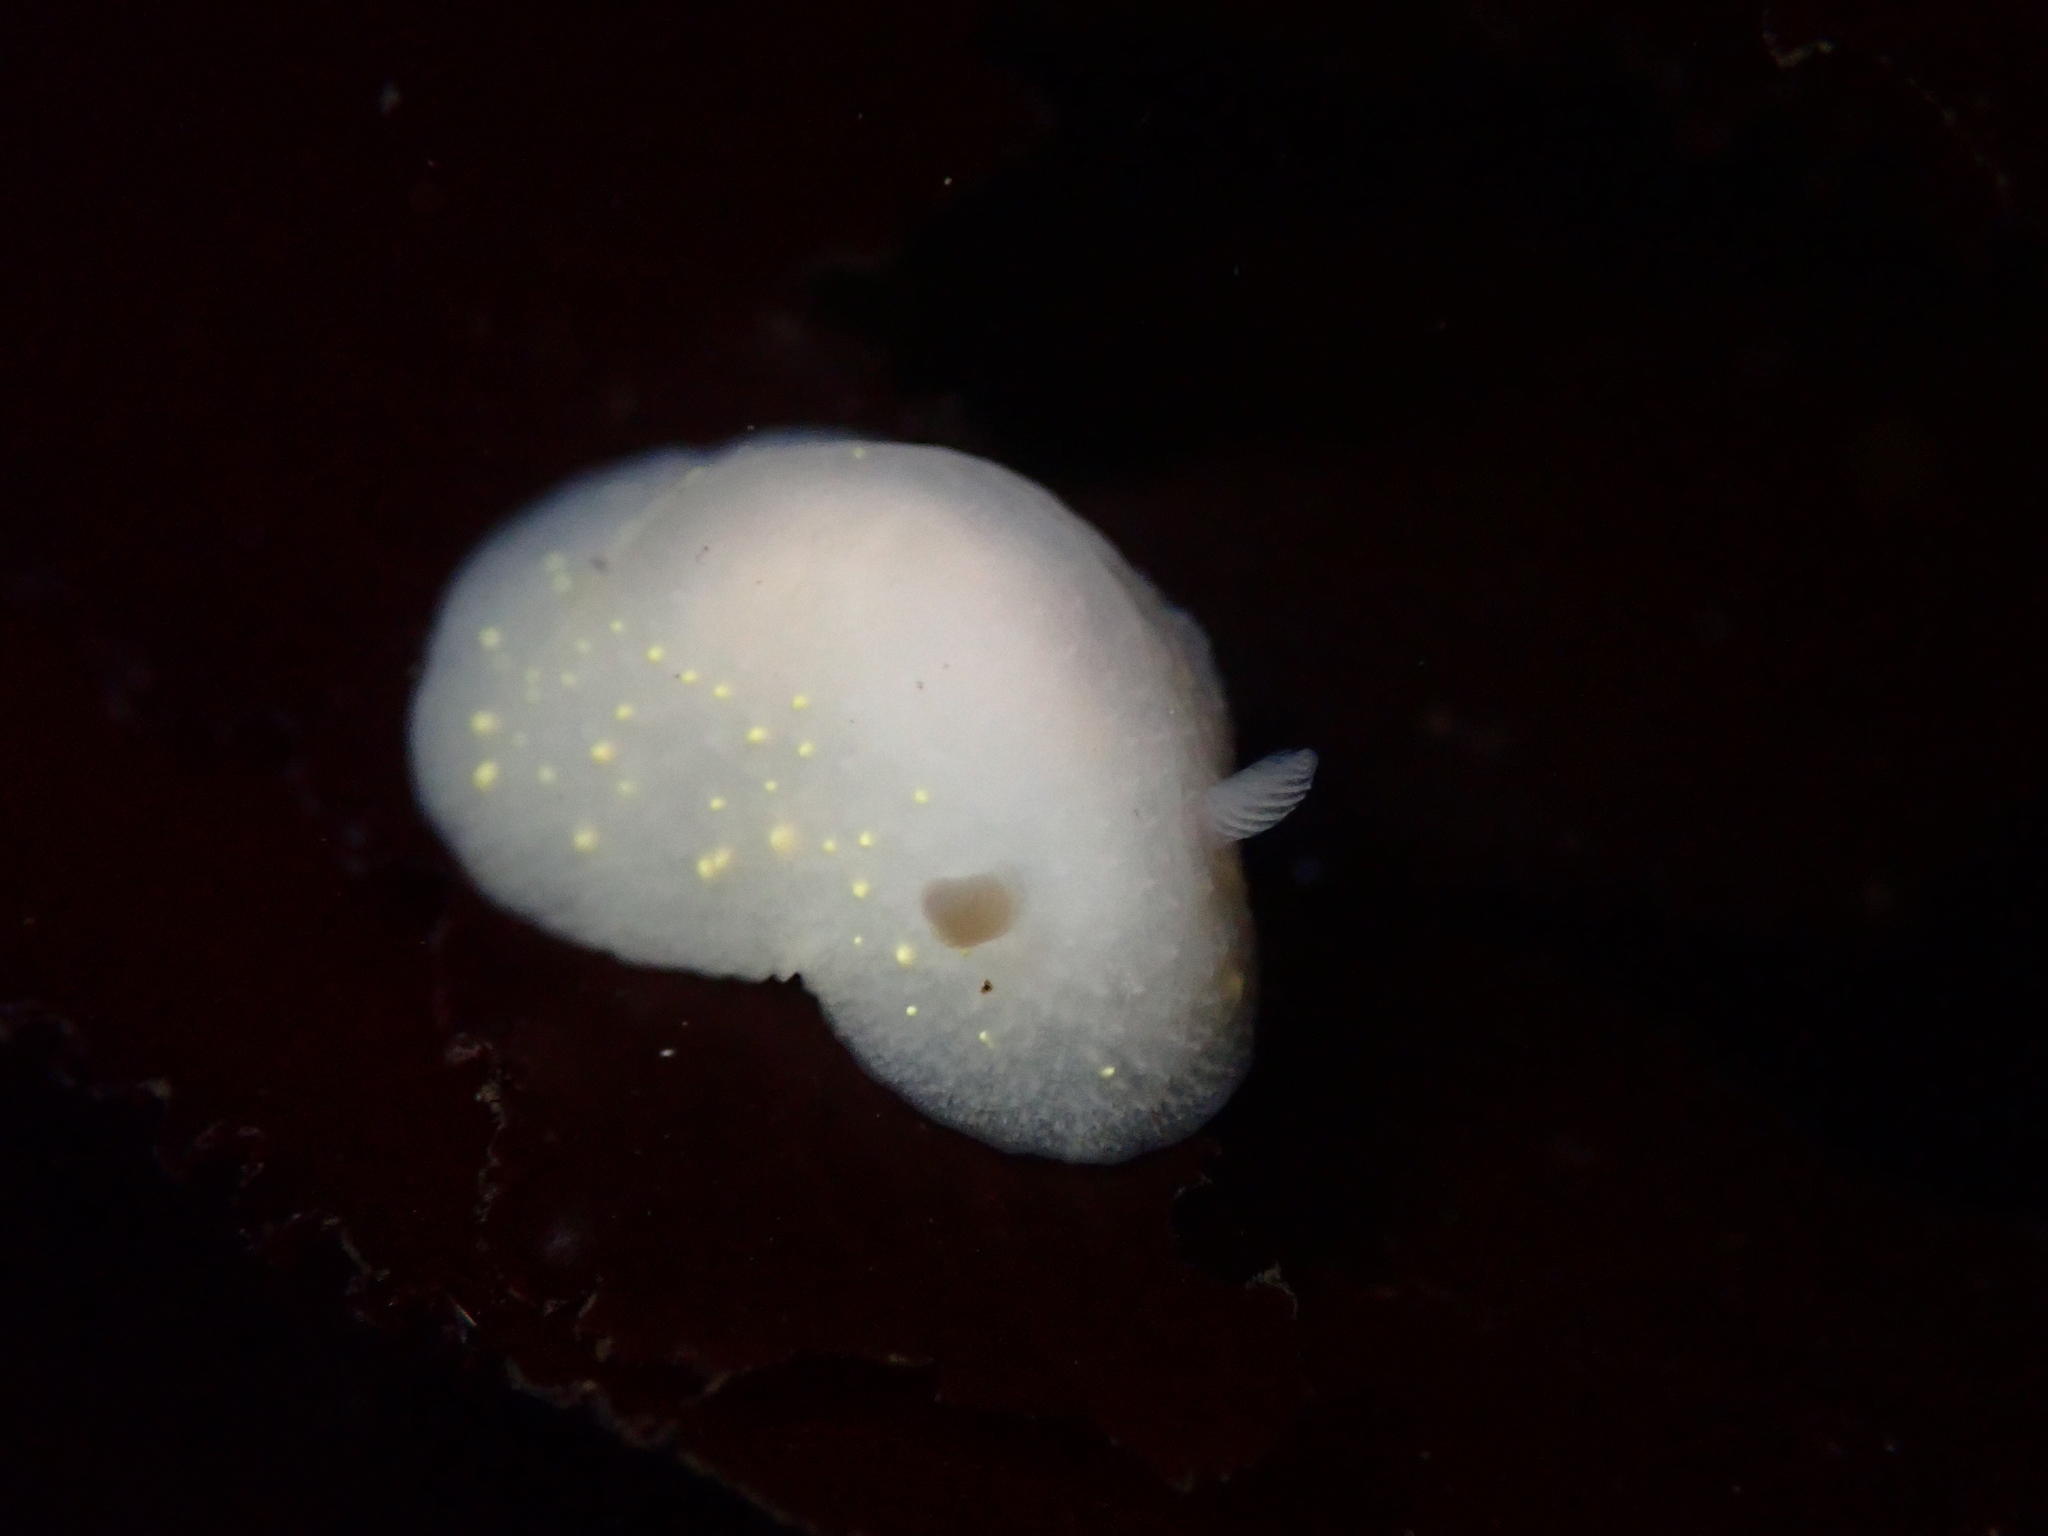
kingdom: Animalia
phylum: Mollusca
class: Gastropoda
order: Nudibranchia
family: Cadlinidae
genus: Cadlina
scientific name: Cadlina modesta
